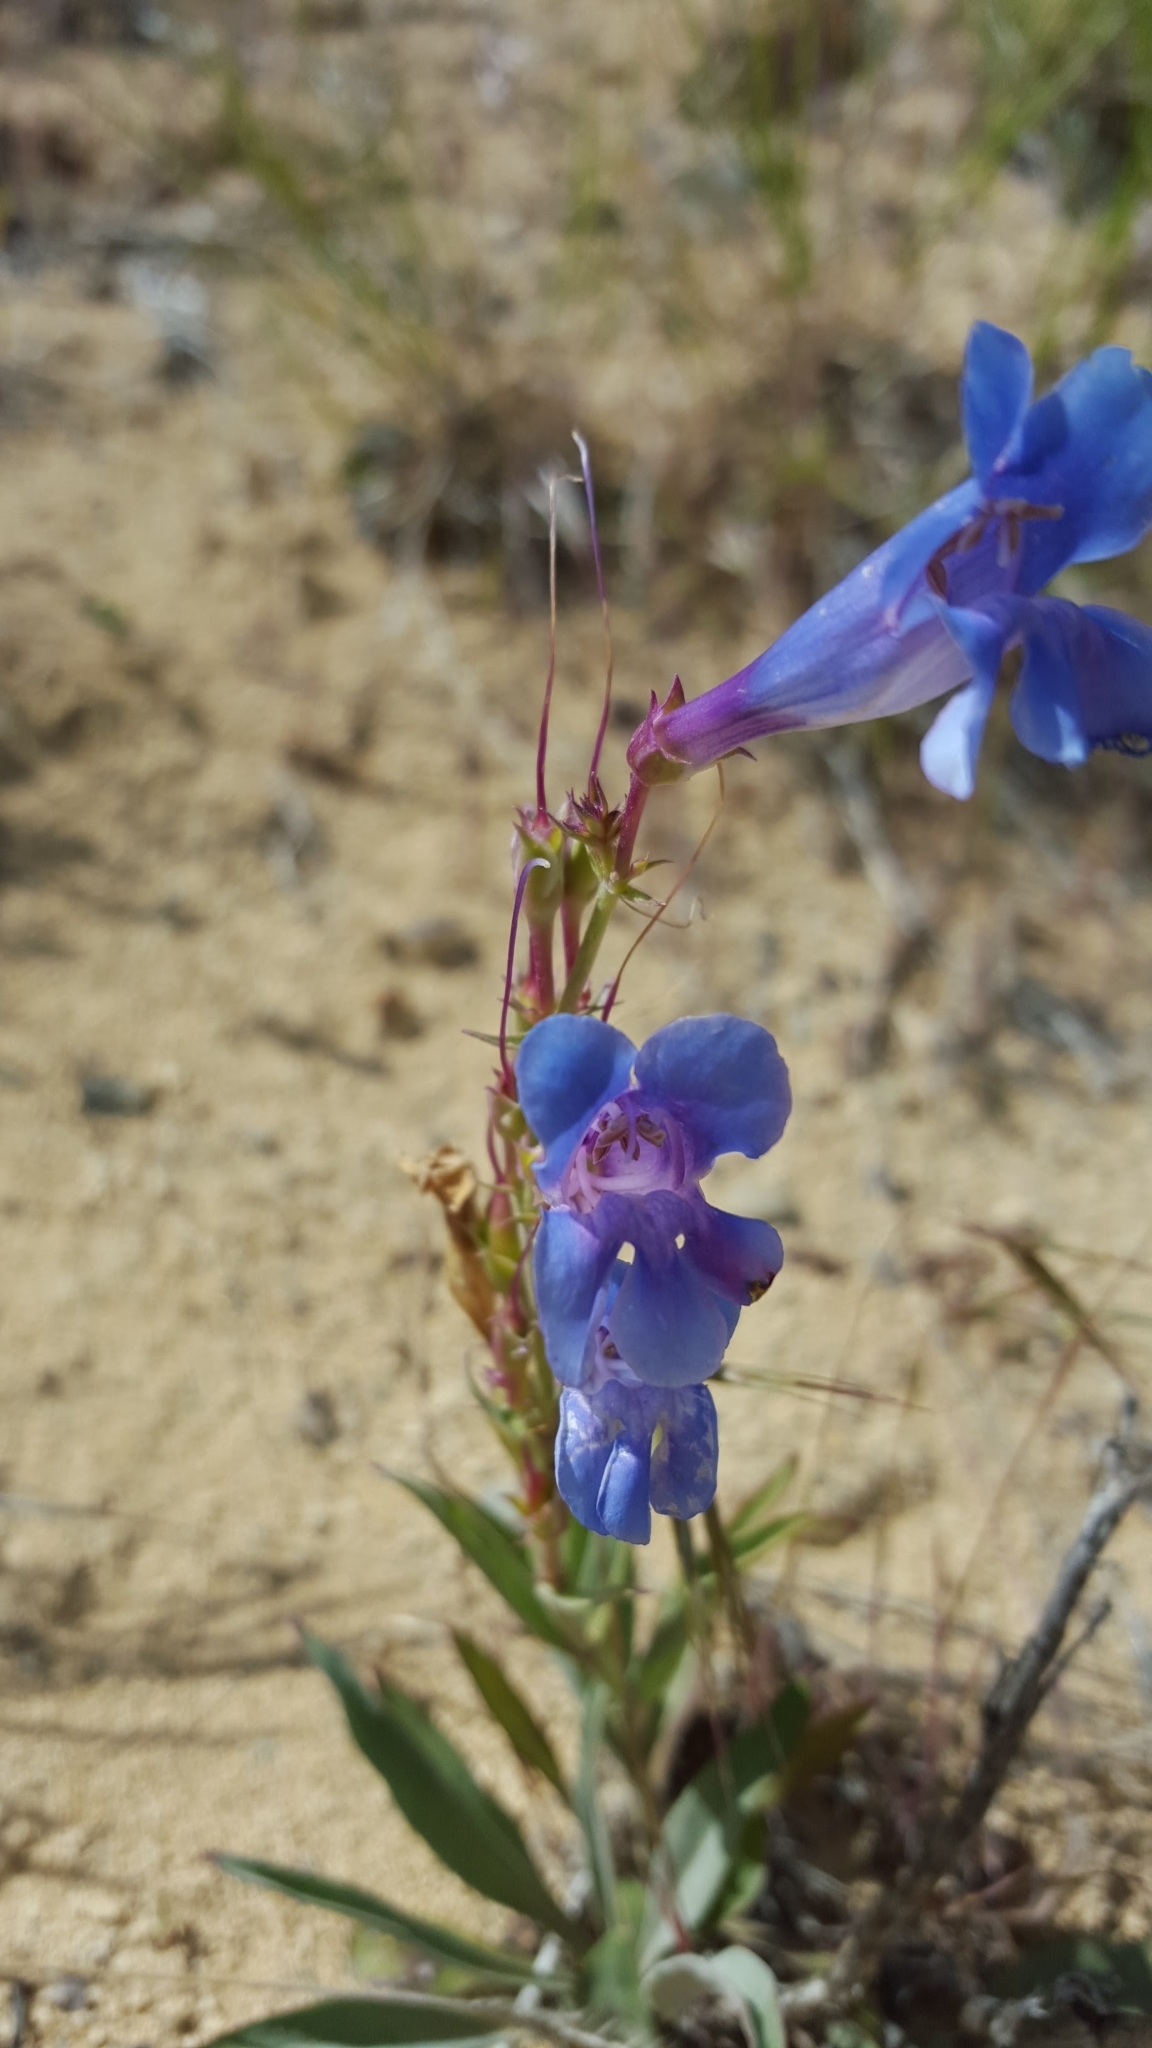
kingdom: Plantae
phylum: Tracheophyta
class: Magnoliopsida
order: Lamiales
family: Plantaginaceae
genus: Penstemon
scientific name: Penstemon speciosus
